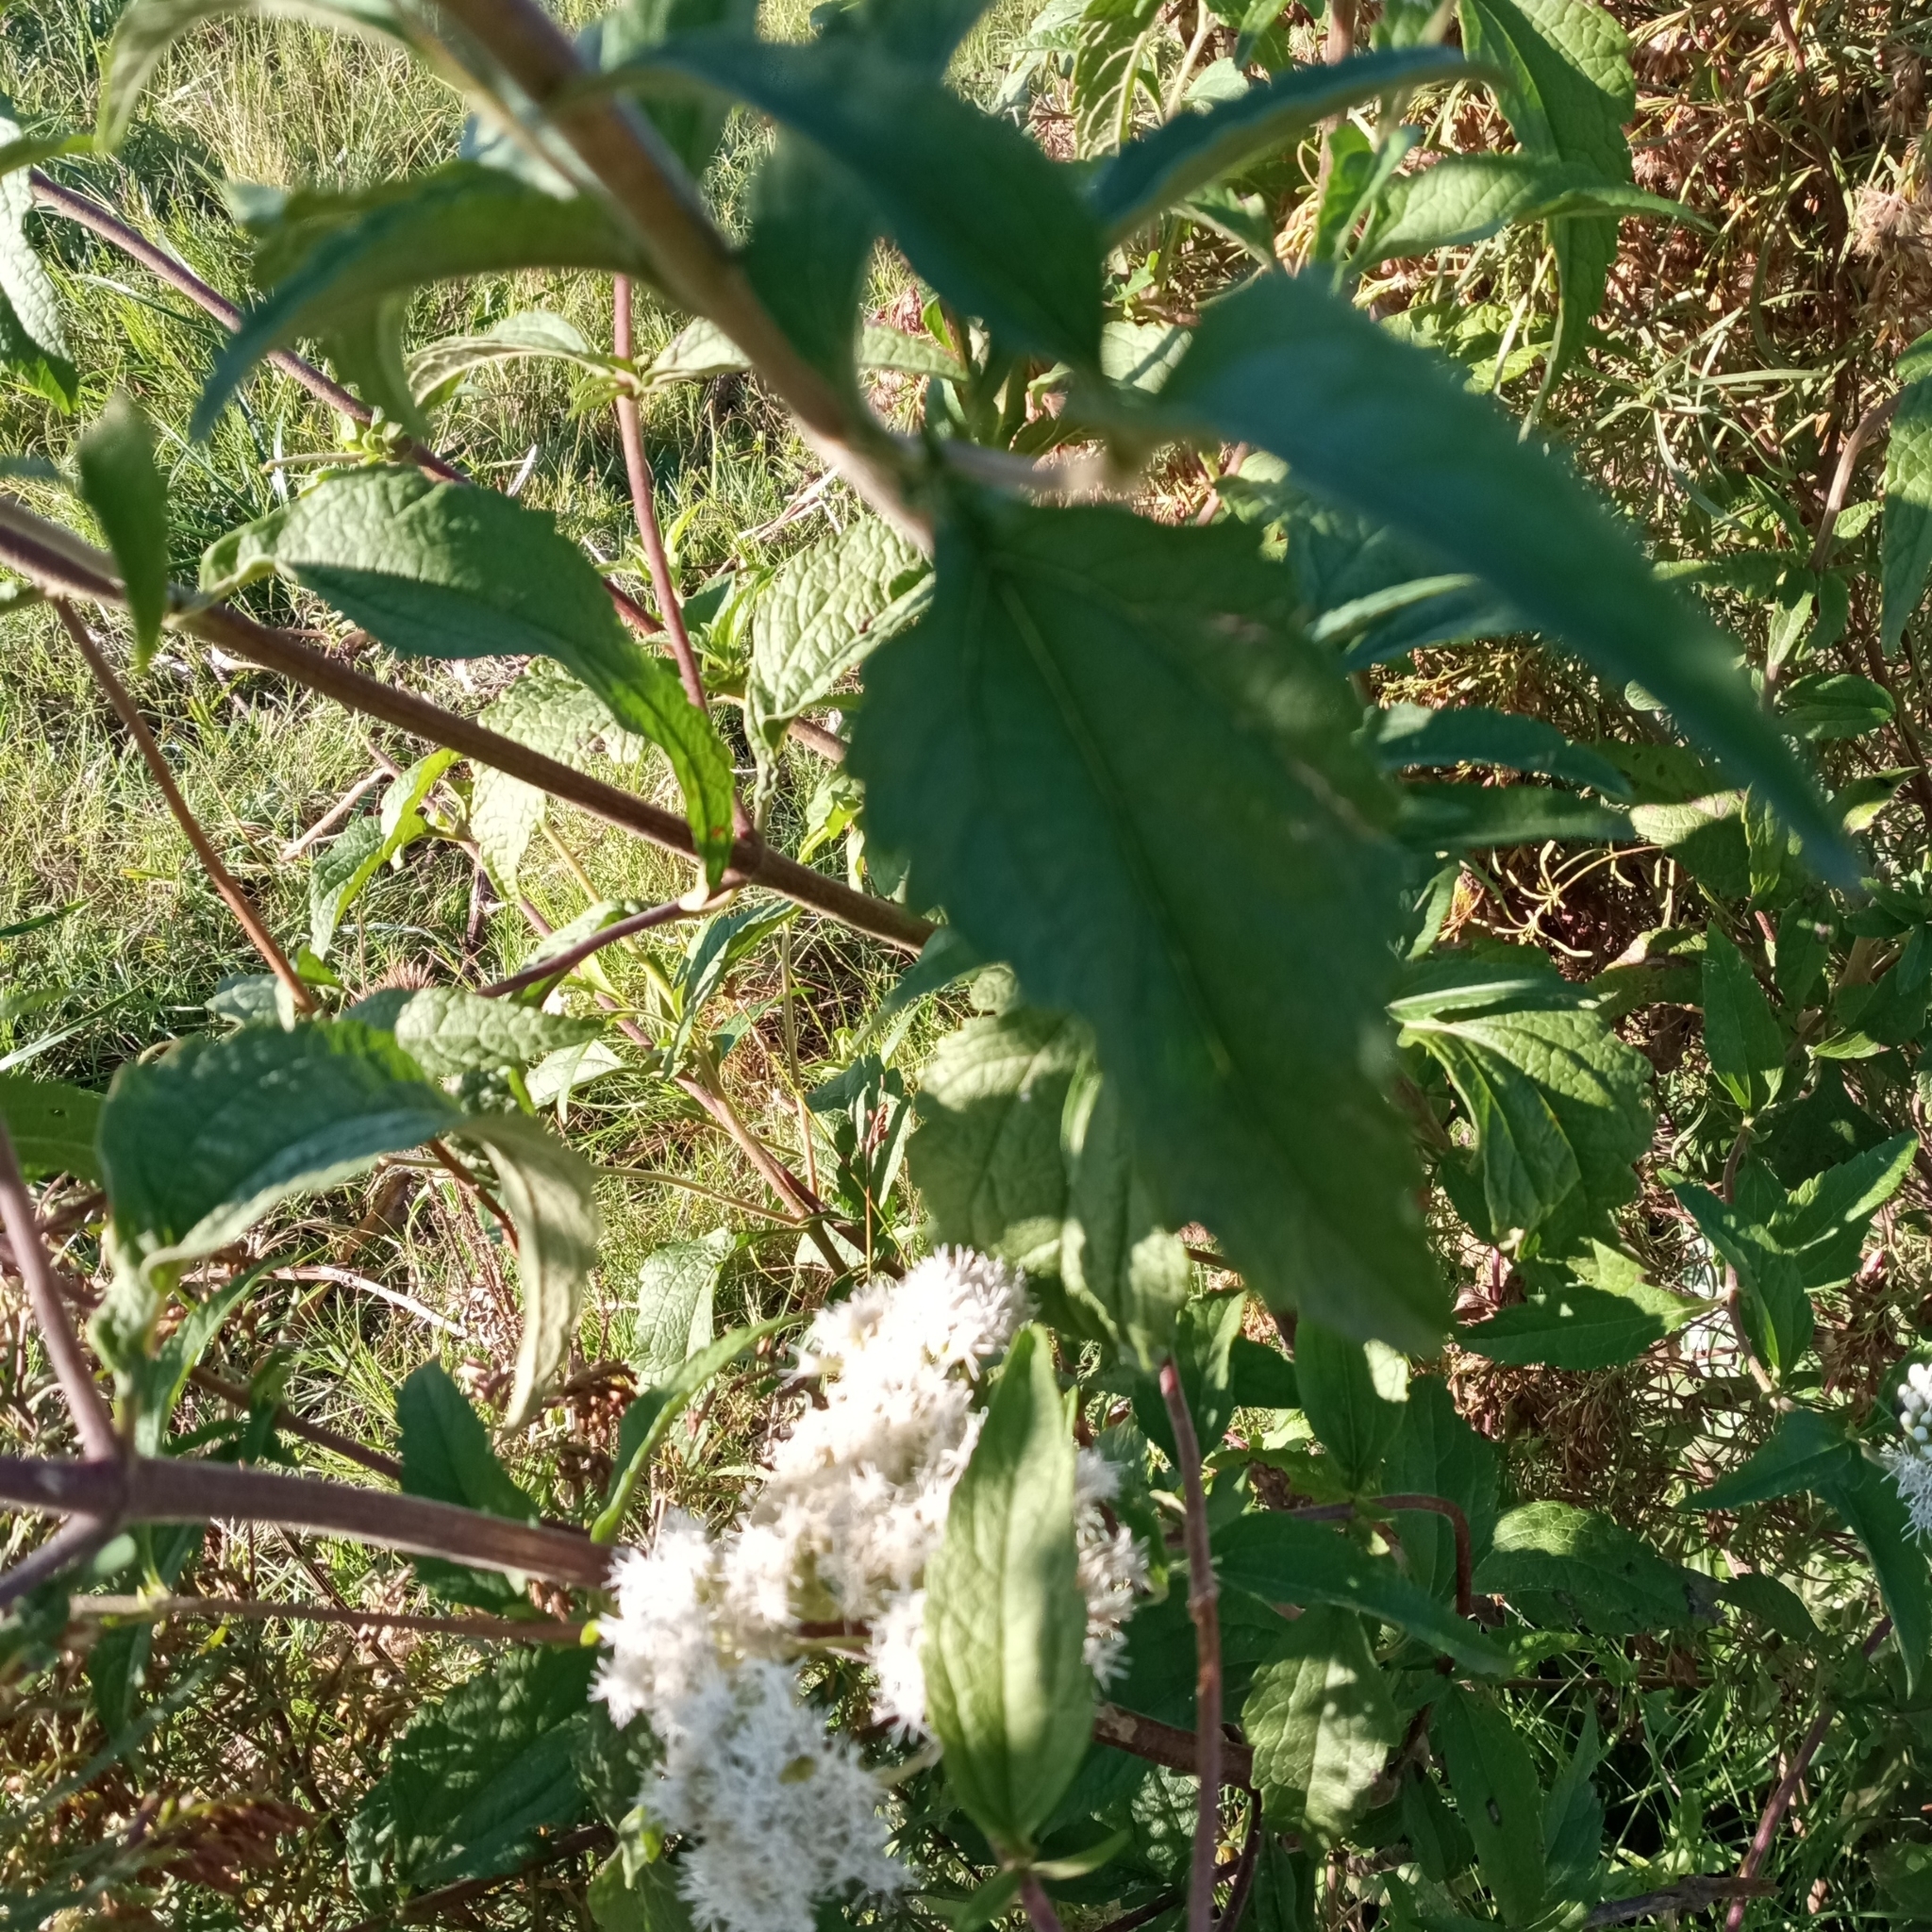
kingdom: Plantae
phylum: Tracheophyta
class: Magnoliopsida
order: Asterales
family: Asteraceae
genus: Austroeupatorium
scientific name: Austroeupatorium inulifolium
